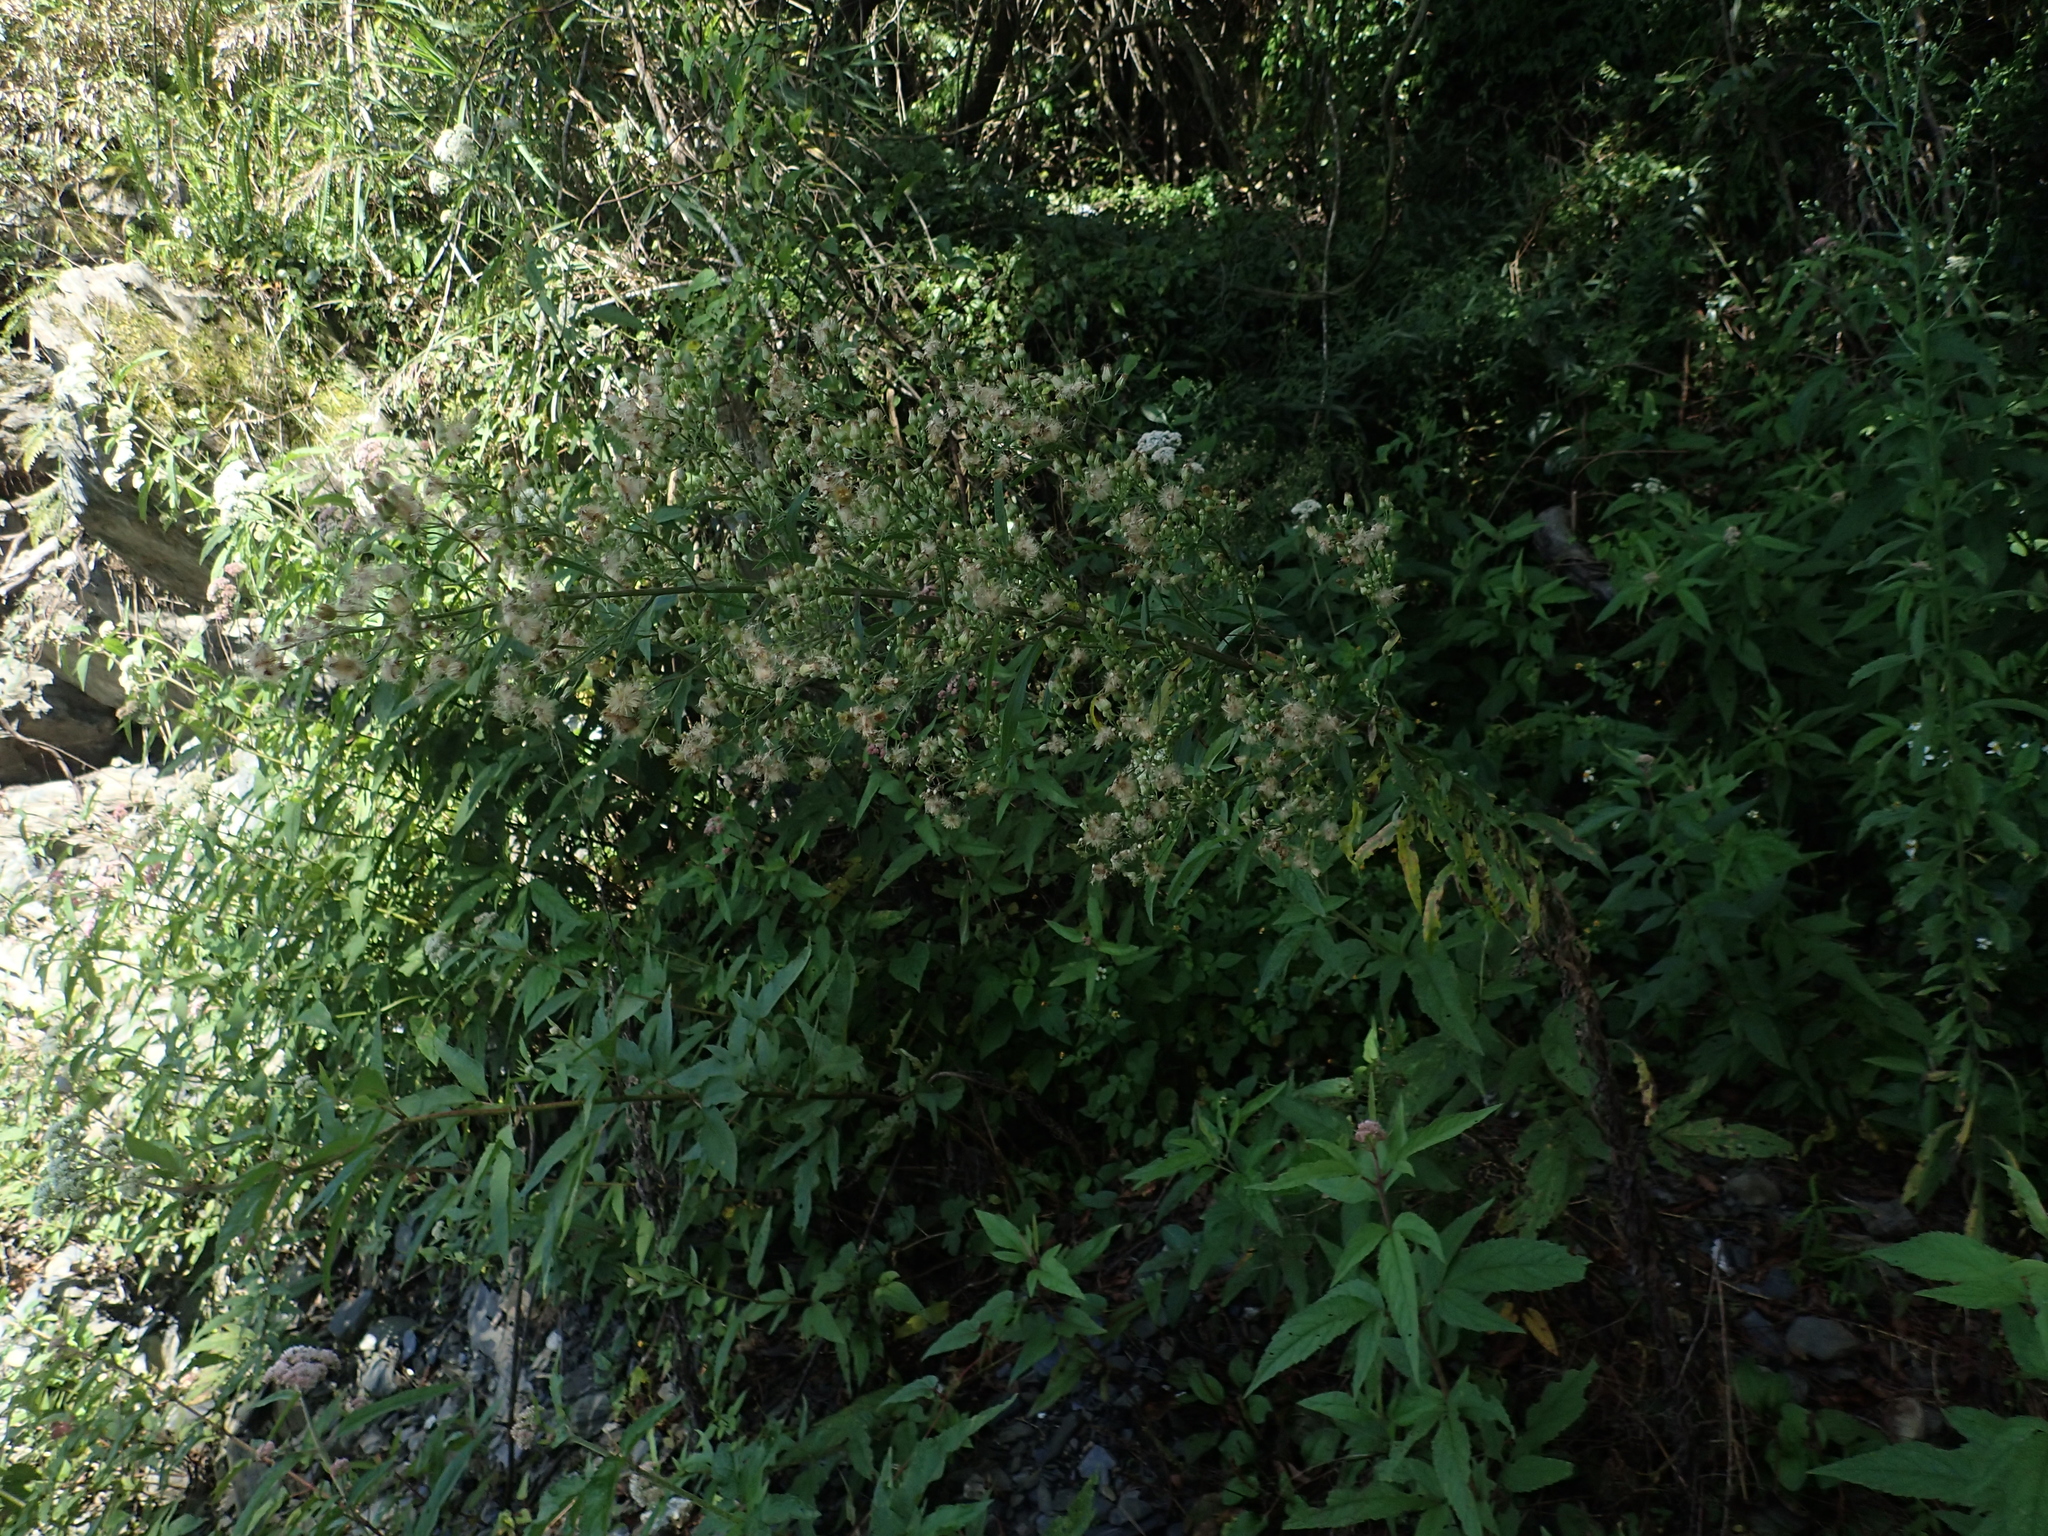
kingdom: Plantae
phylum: Tracheophyta
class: Magnoliopsida
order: Asterales
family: Asteraceae
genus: Erigeron
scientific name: Erigeron sumatrensis
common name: Daisy
